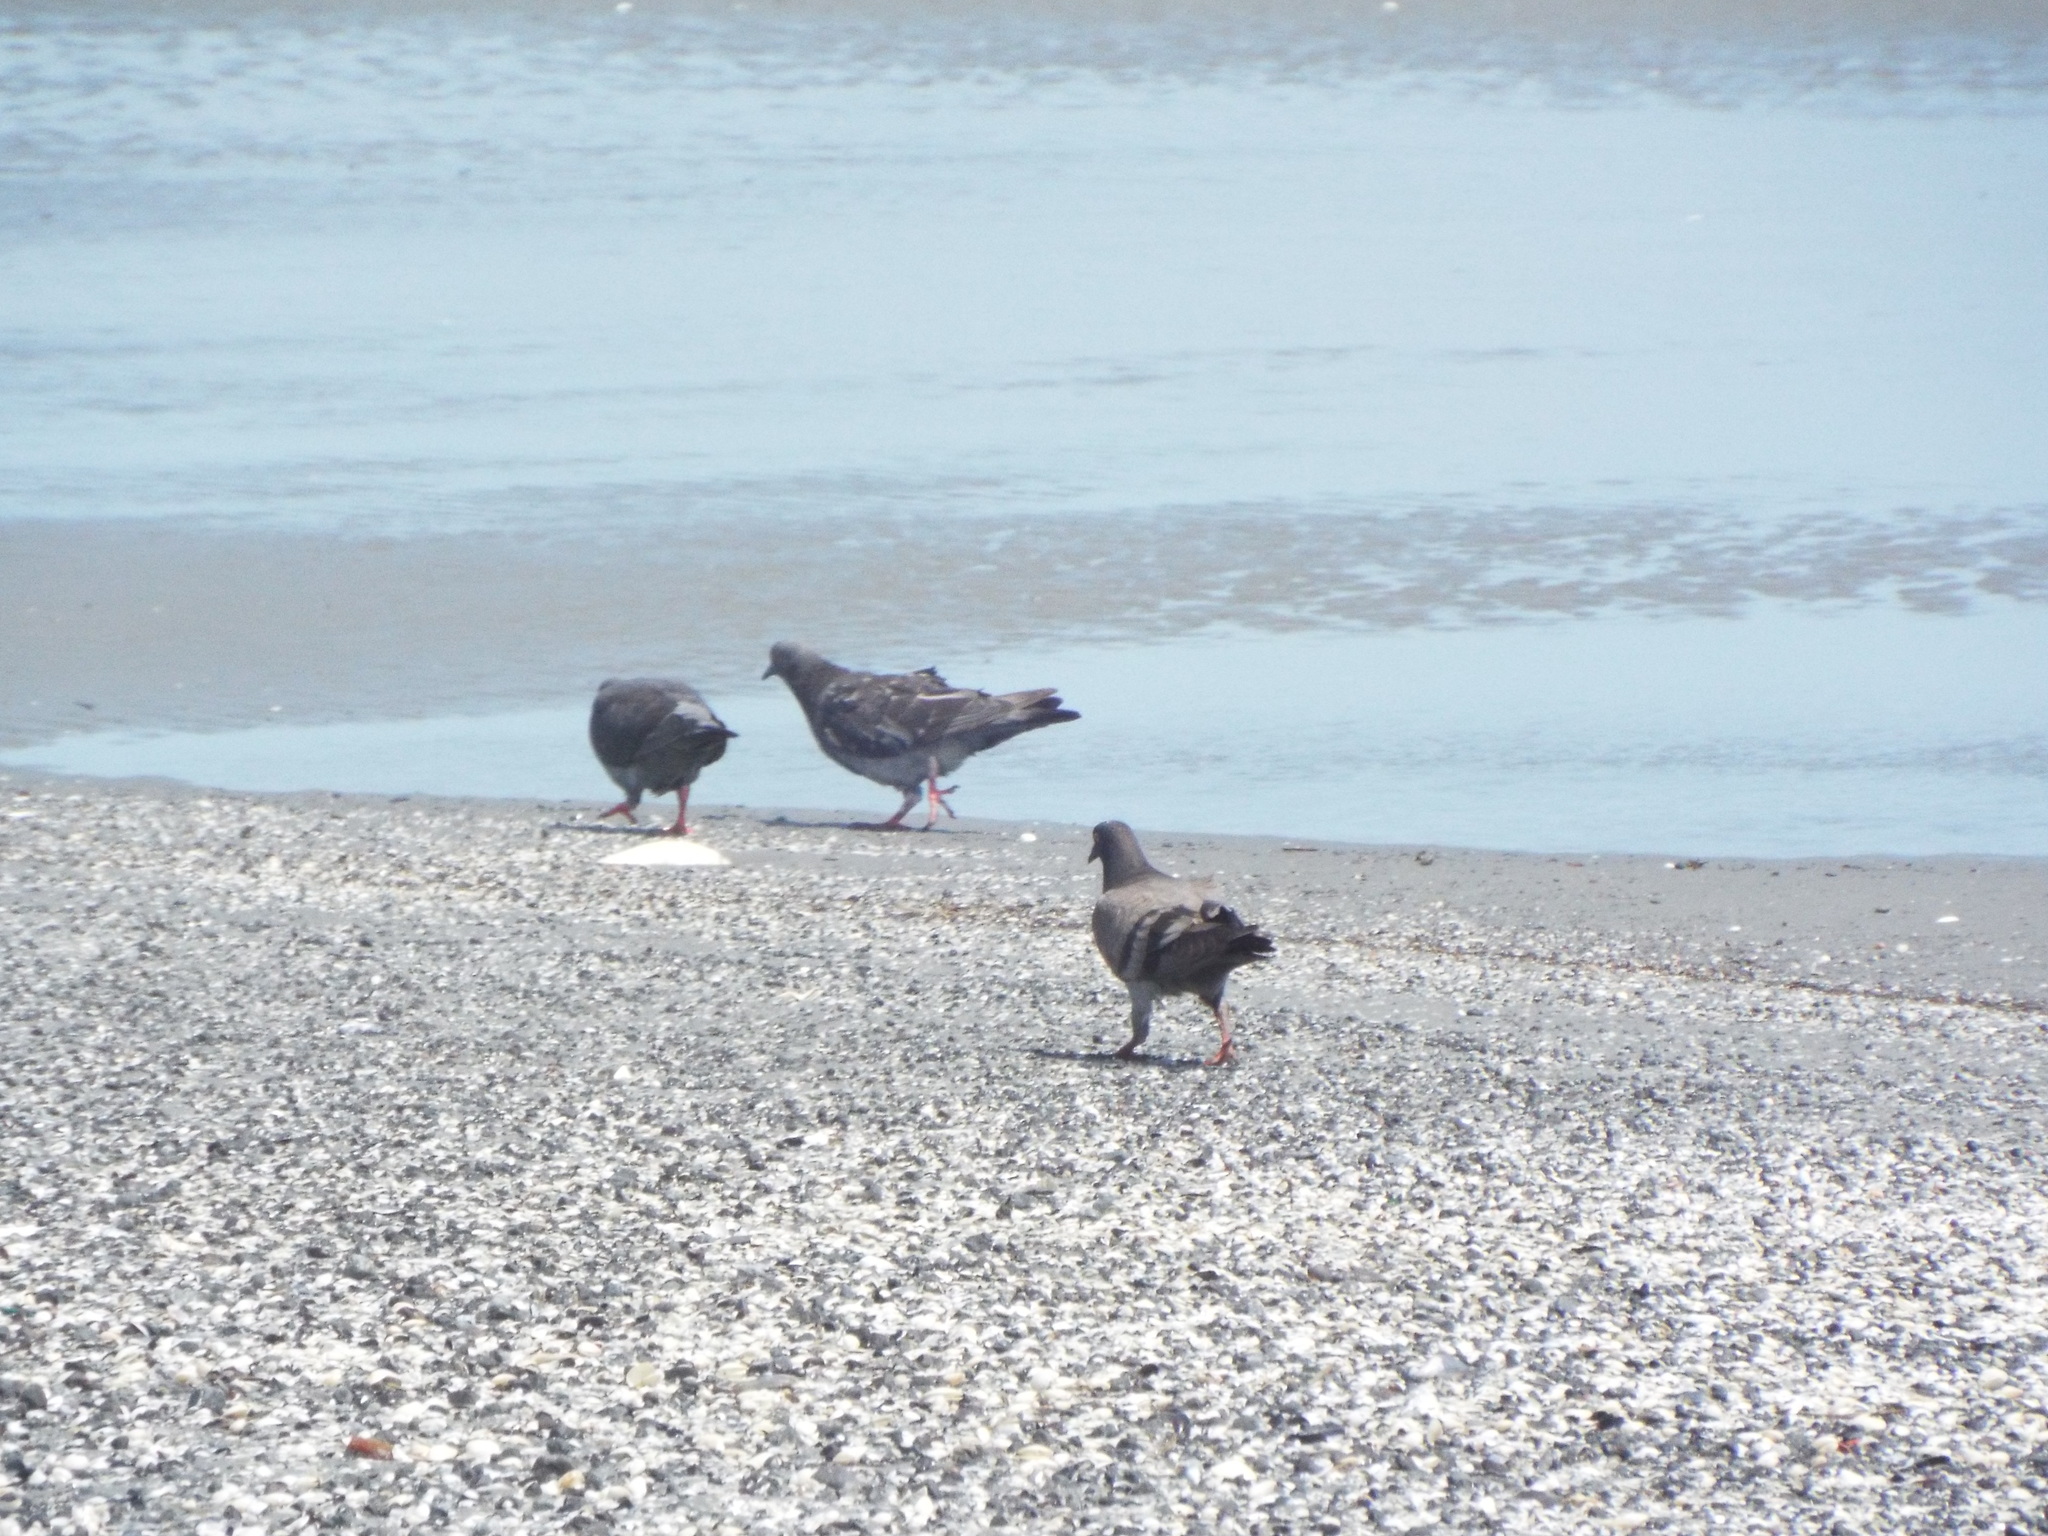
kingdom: Animalia
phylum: Chordata
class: Aves
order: Columbiformes
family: Columbidae
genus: Columba
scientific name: Columba livia
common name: Rock pigeon
